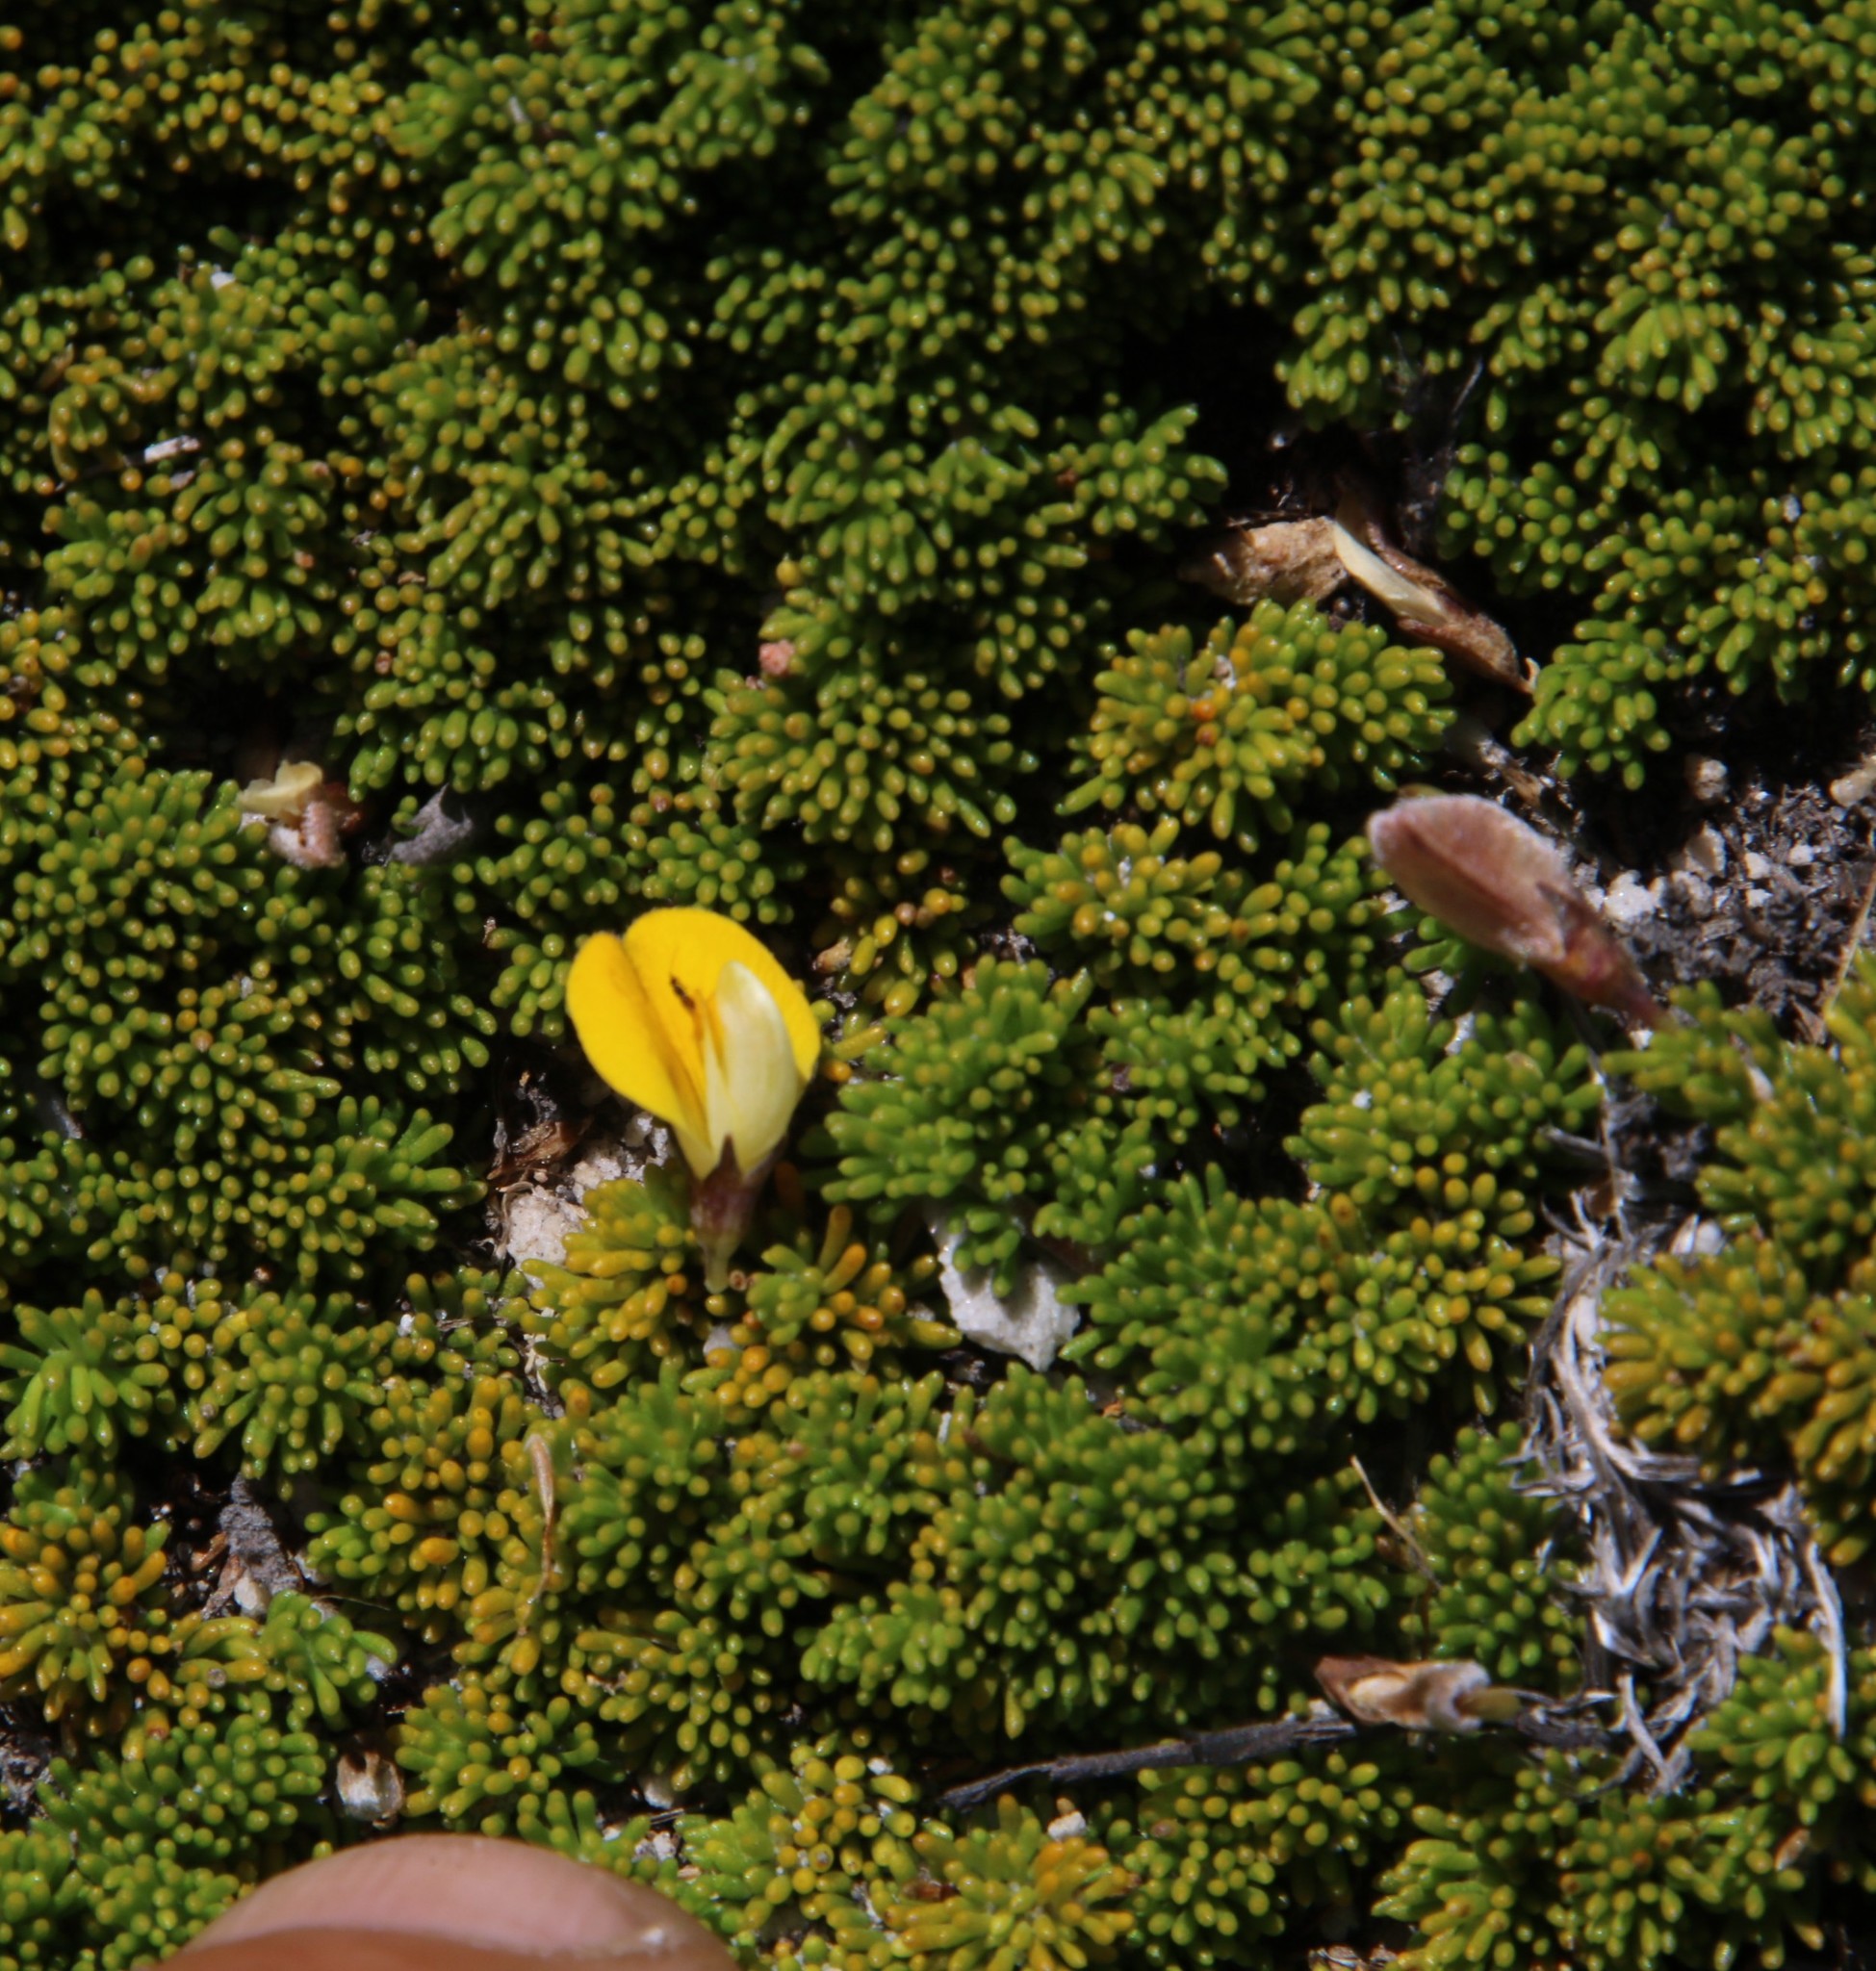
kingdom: Plantae
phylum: Tracheophyta
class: Magnoliopsida
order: Fabales
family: Fabaceae
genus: Aspalathus
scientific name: Aspalathus pedicellata
